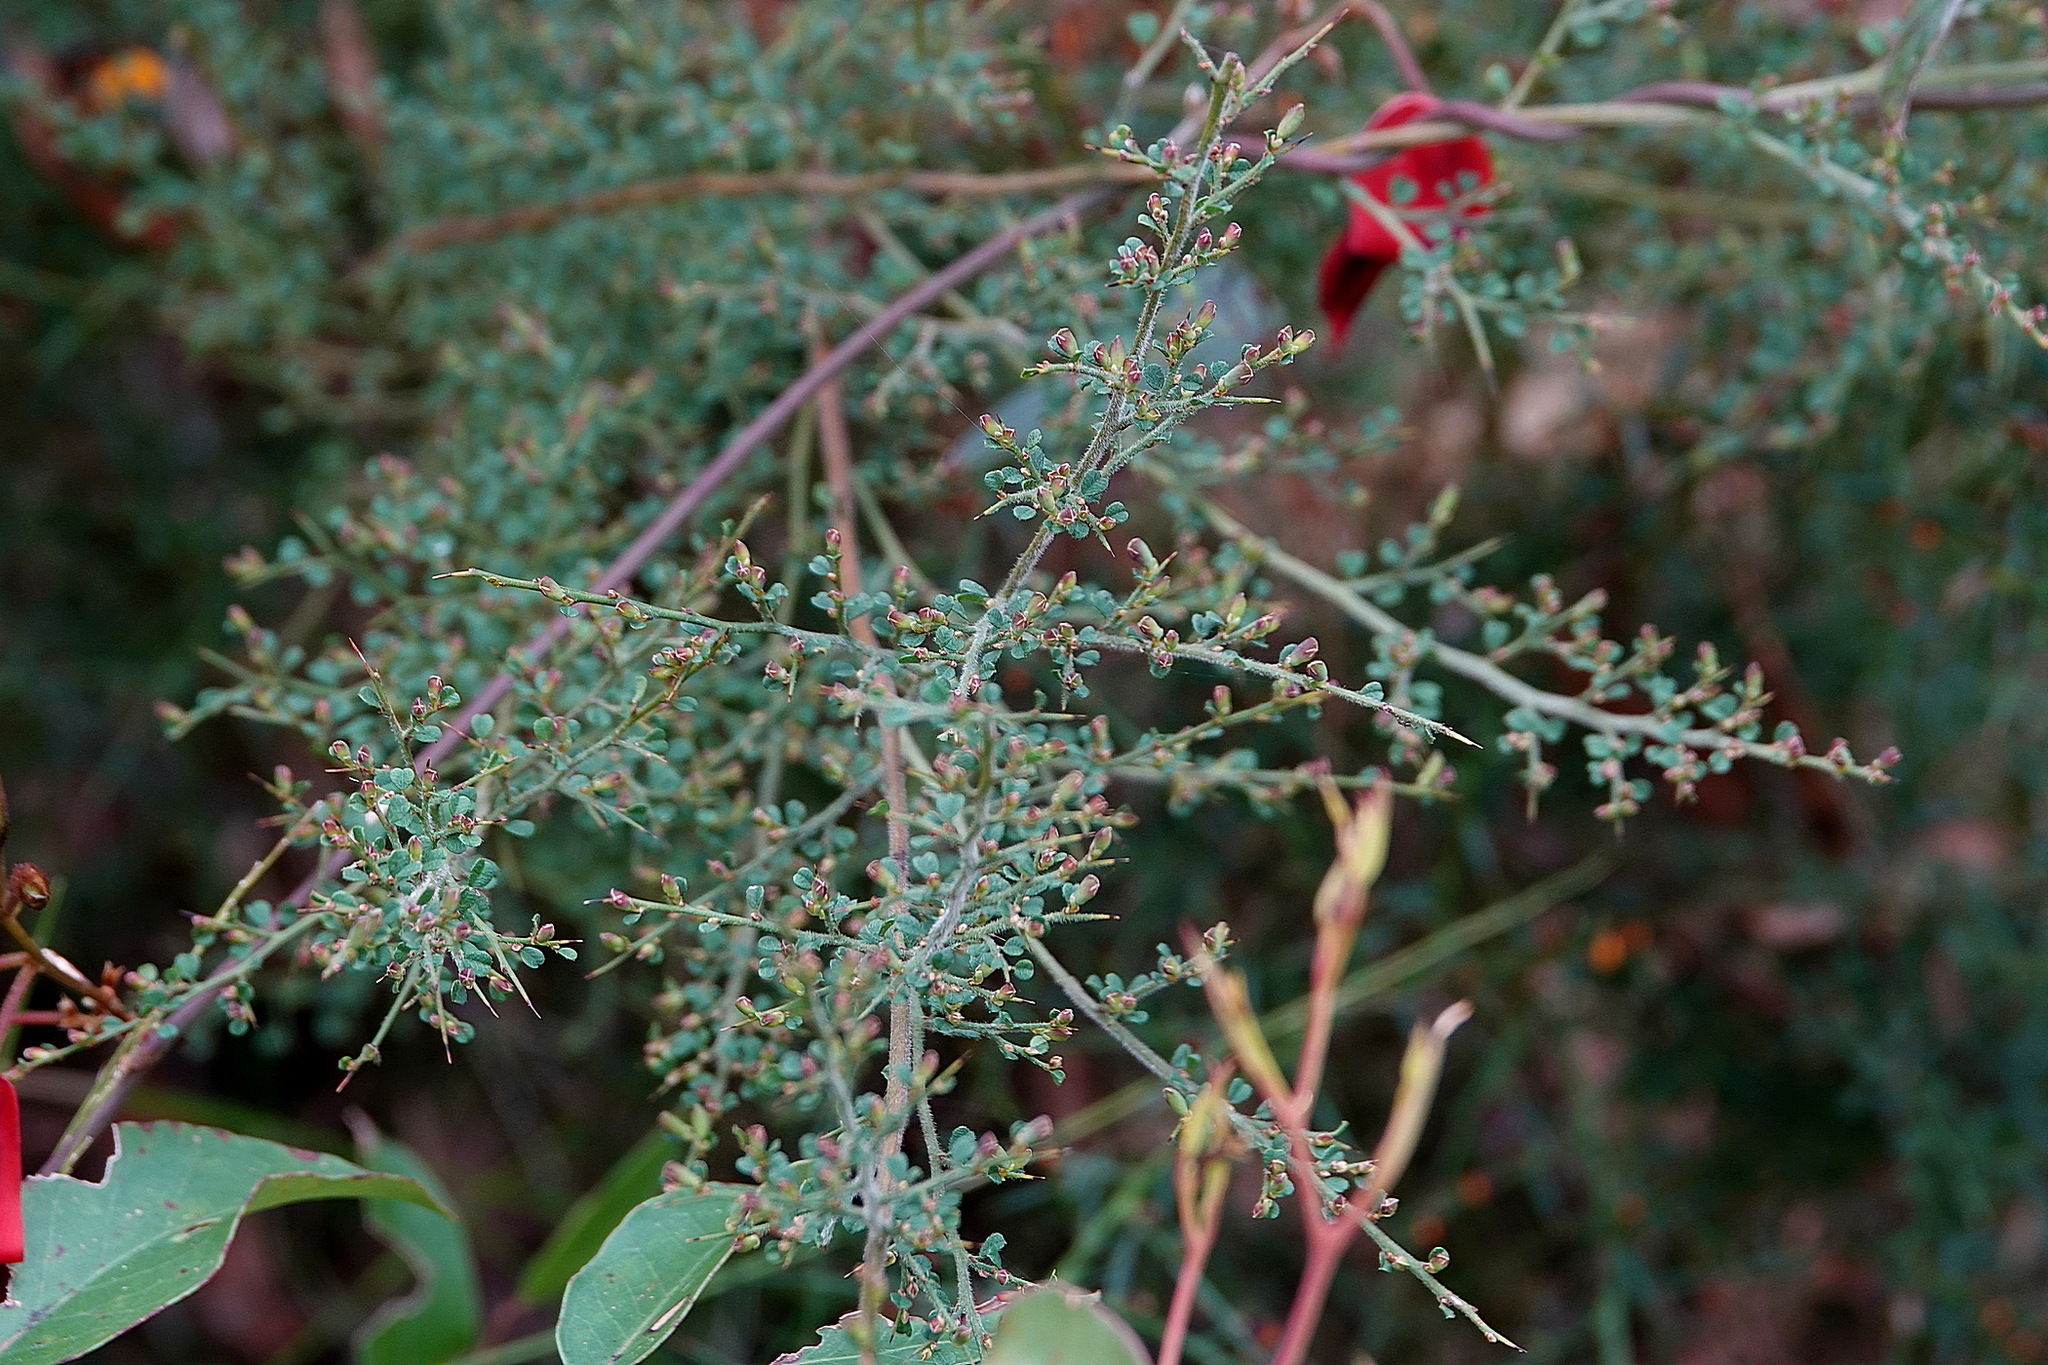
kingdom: Plantae
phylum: Tracheophyta
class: Magnoliopsida
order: Fabales
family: Fabaceae
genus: Bossiaea
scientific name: Bossiaea obcordata
